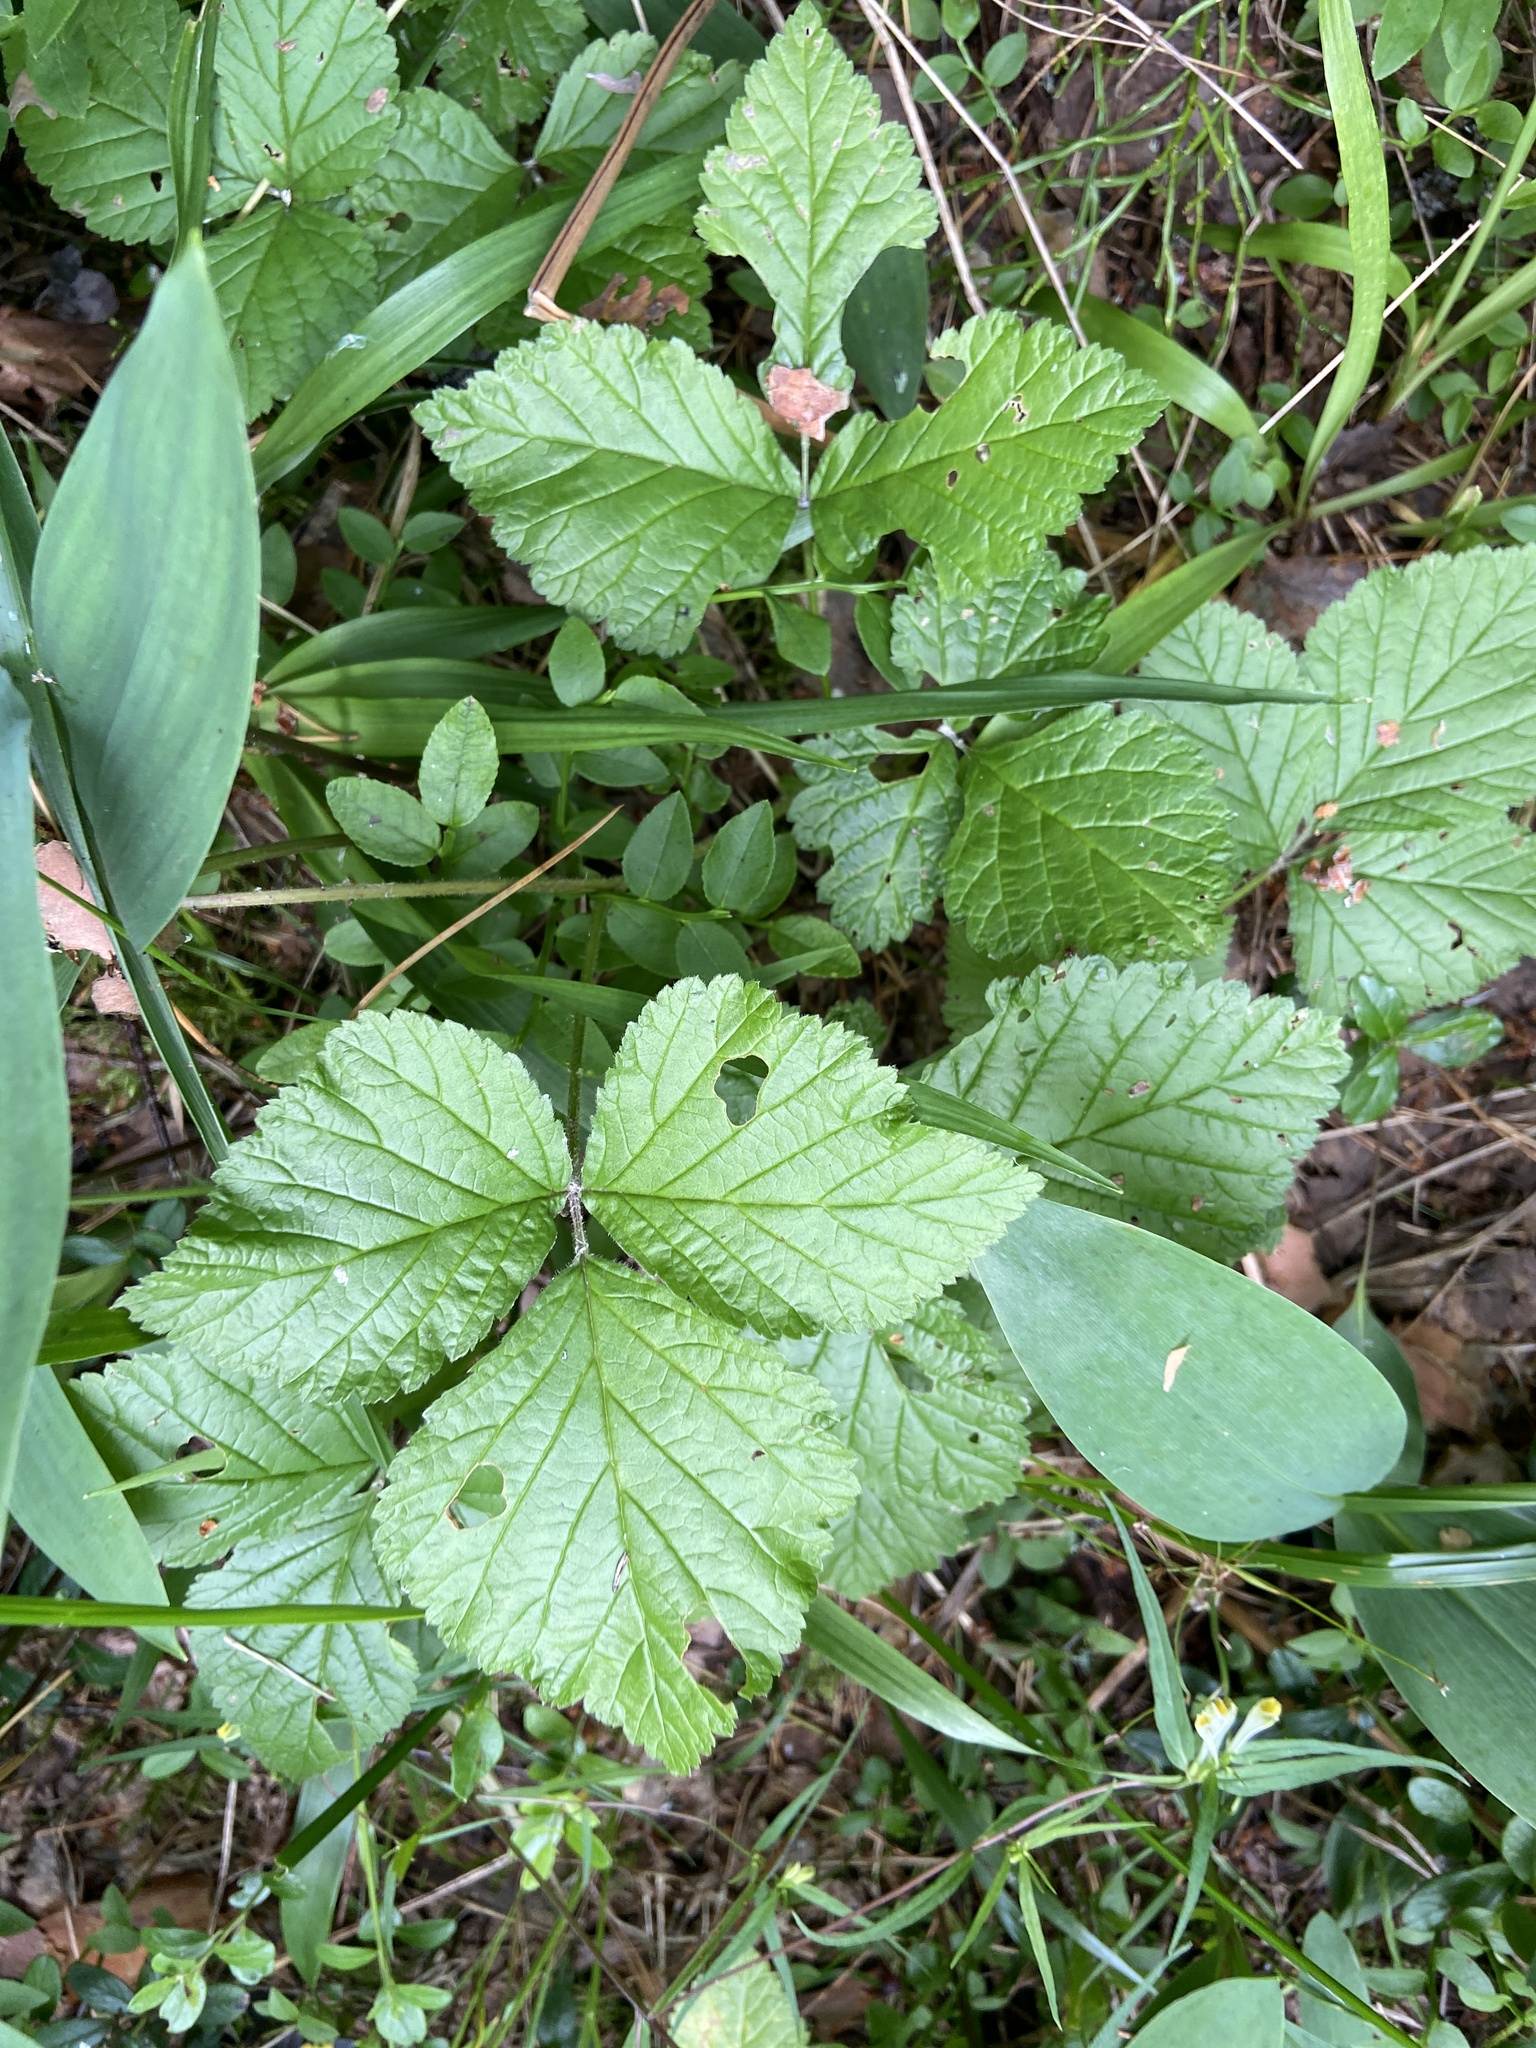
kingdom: Plantae
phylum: Tracheophyta
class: Magnoliopsida
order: Rosales
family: Rosaceae
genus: Rubus
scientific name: Rubus saxatilis
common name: Stone bramble
